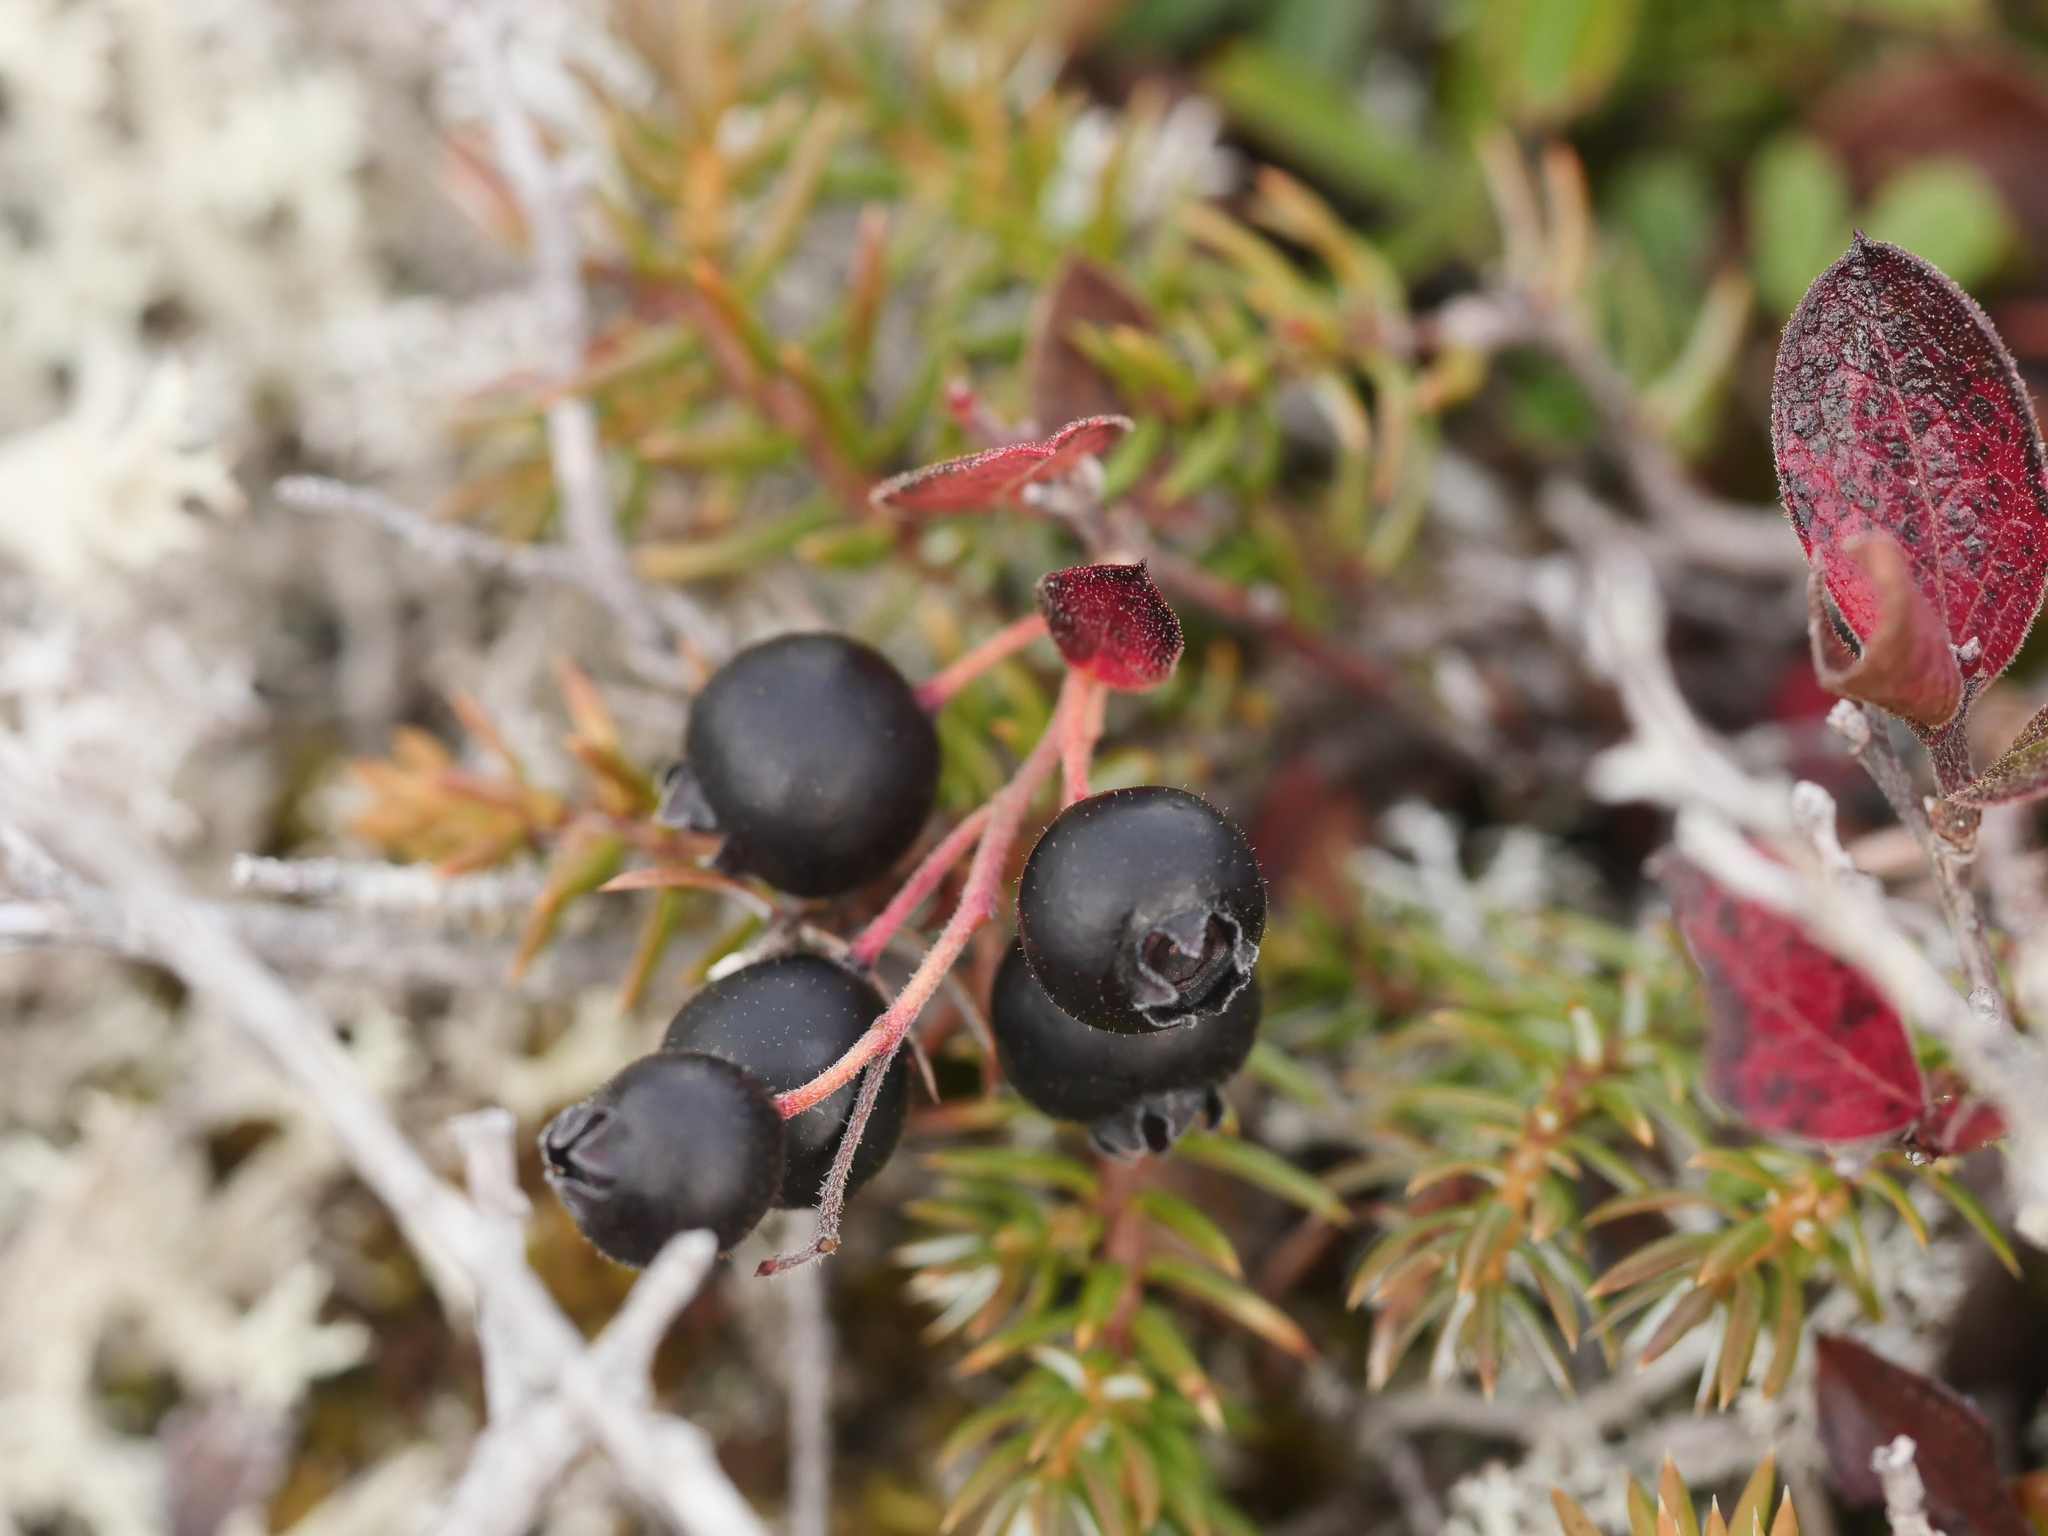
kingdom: Plantae
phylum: Tracheophyta
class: Magnoliopsida
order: Ericales
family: Ericaceae
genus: Gaylussacia
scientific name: Gaylussacia bigeloviana
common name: Bog huckleberry
